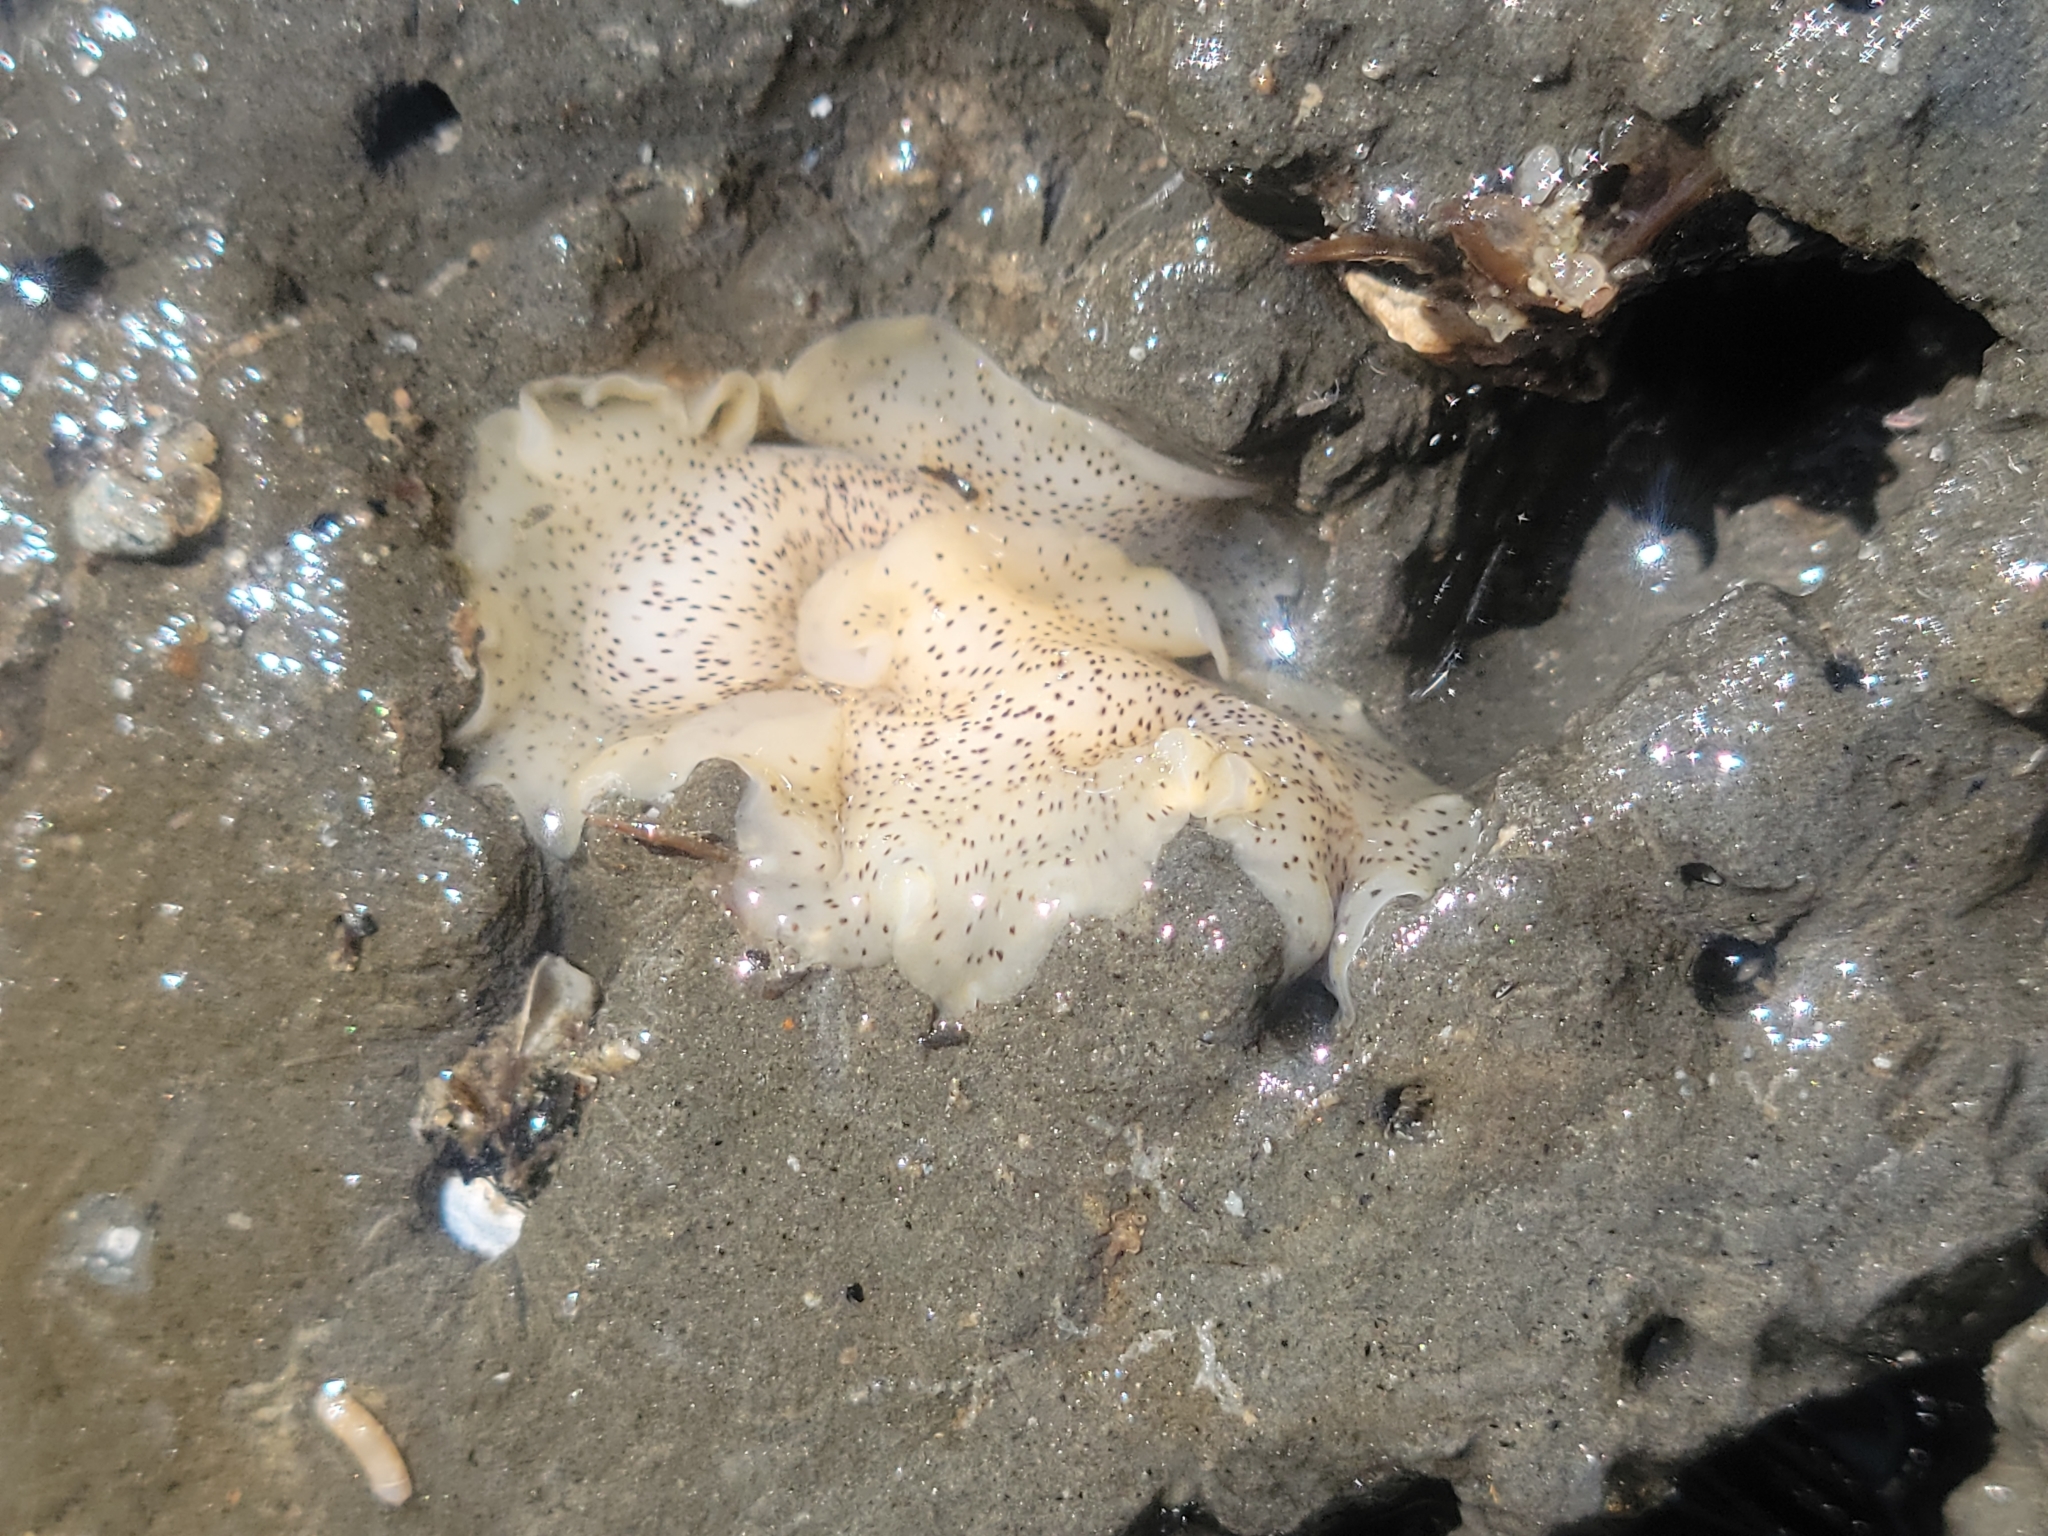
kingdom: Animalia
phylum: Platyhelminthes
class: Turbellaria
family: Prosthiostomidae
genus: Enchiridium
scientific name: Enchiridium punctatum
